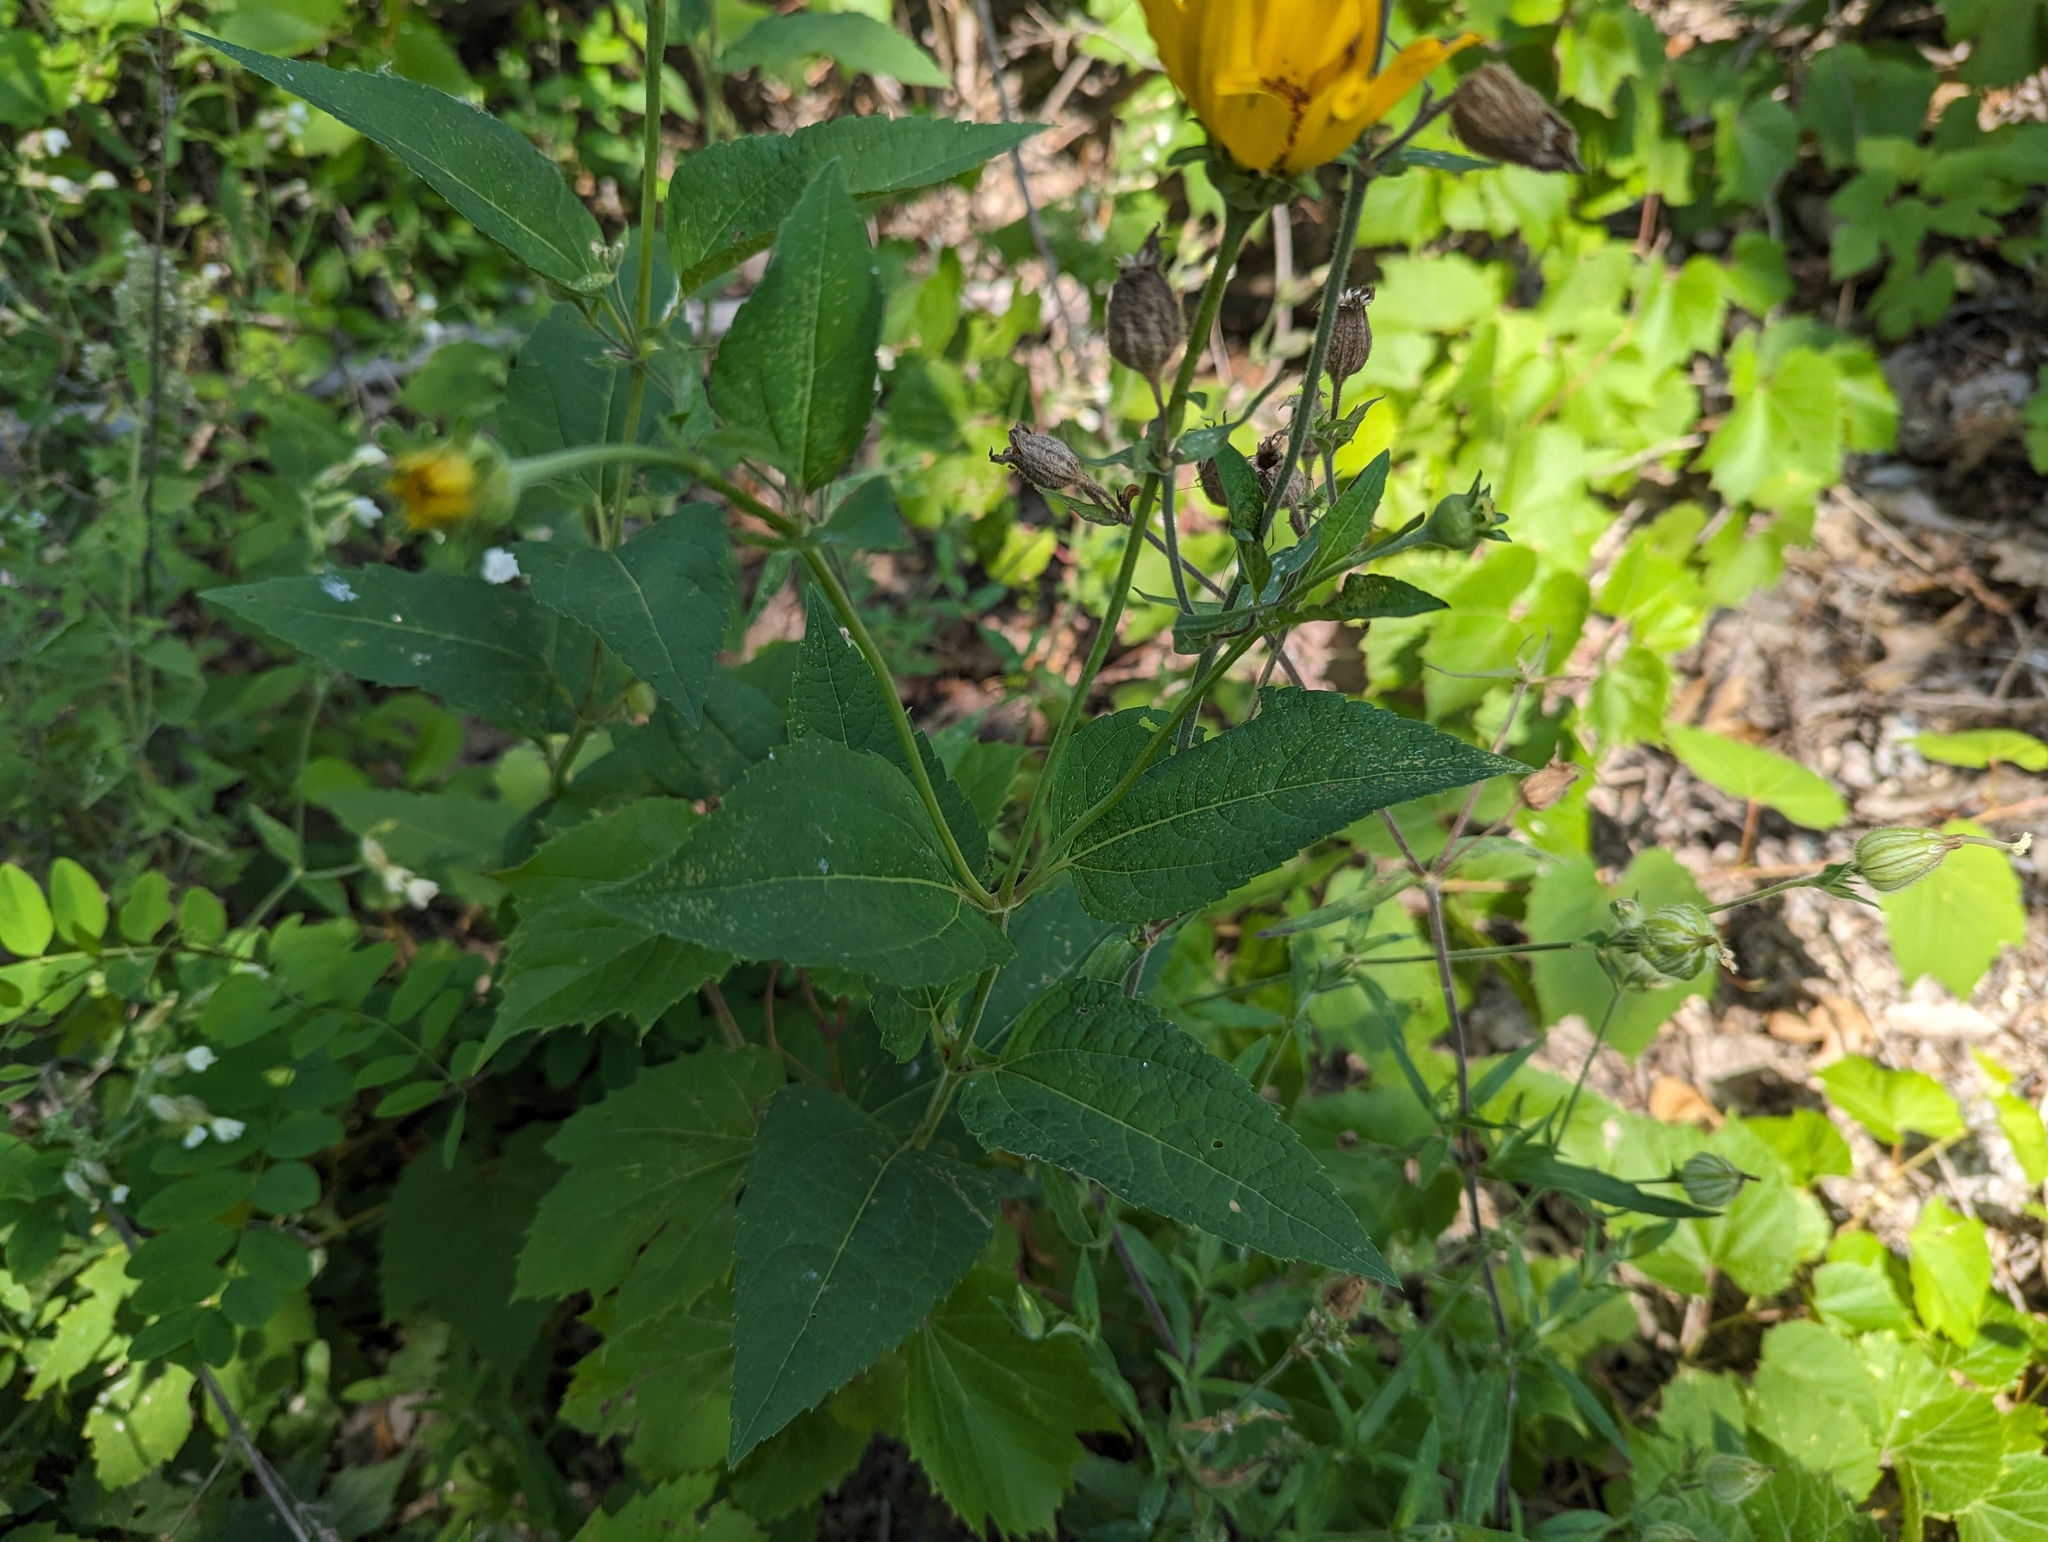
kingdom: Plantae
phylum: Tracheophyta
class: Magnoliopsida
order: Asterales
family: Asteraceae
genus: Heliopsis
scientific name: Heliopsis helianthoides
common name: False sunflower
